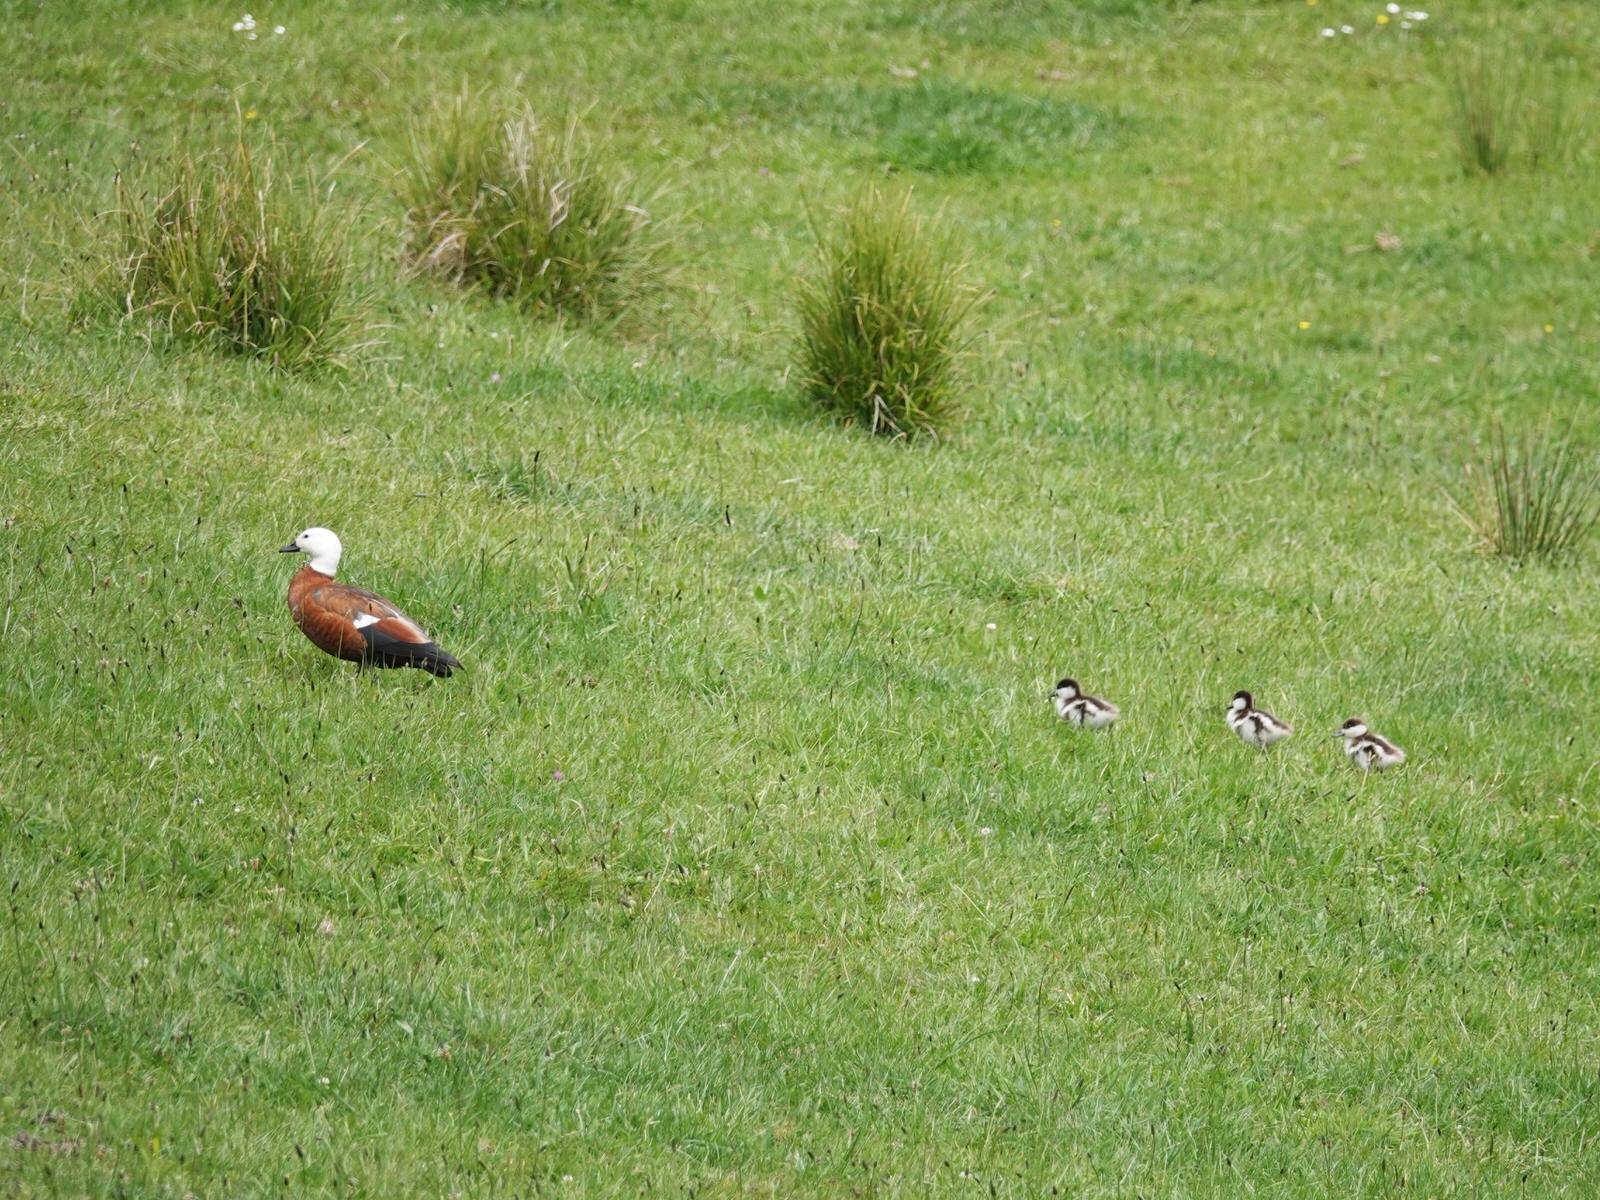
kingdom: Animalia
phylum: Chordata
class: Aves
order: Anseriformes
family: Anatidae
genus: Tadorna
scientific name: Tadorna variegata
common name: Paradise shelduck
